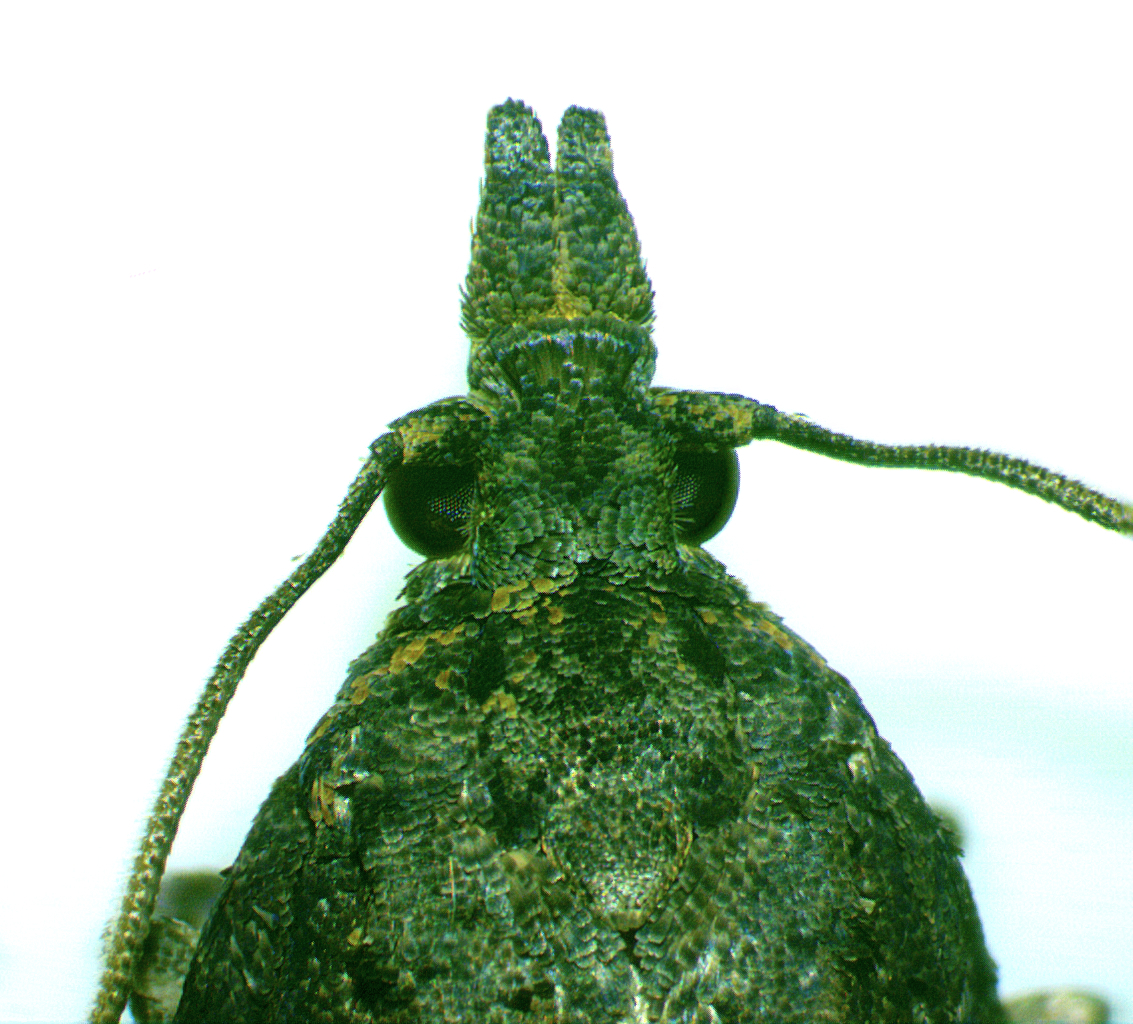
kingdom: Animalia
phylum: Arthropoda
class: Insecta
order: Lepidoptera
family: Tortricidae
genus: Platynota
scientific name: Platynota semiustana
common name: Singed platynota
